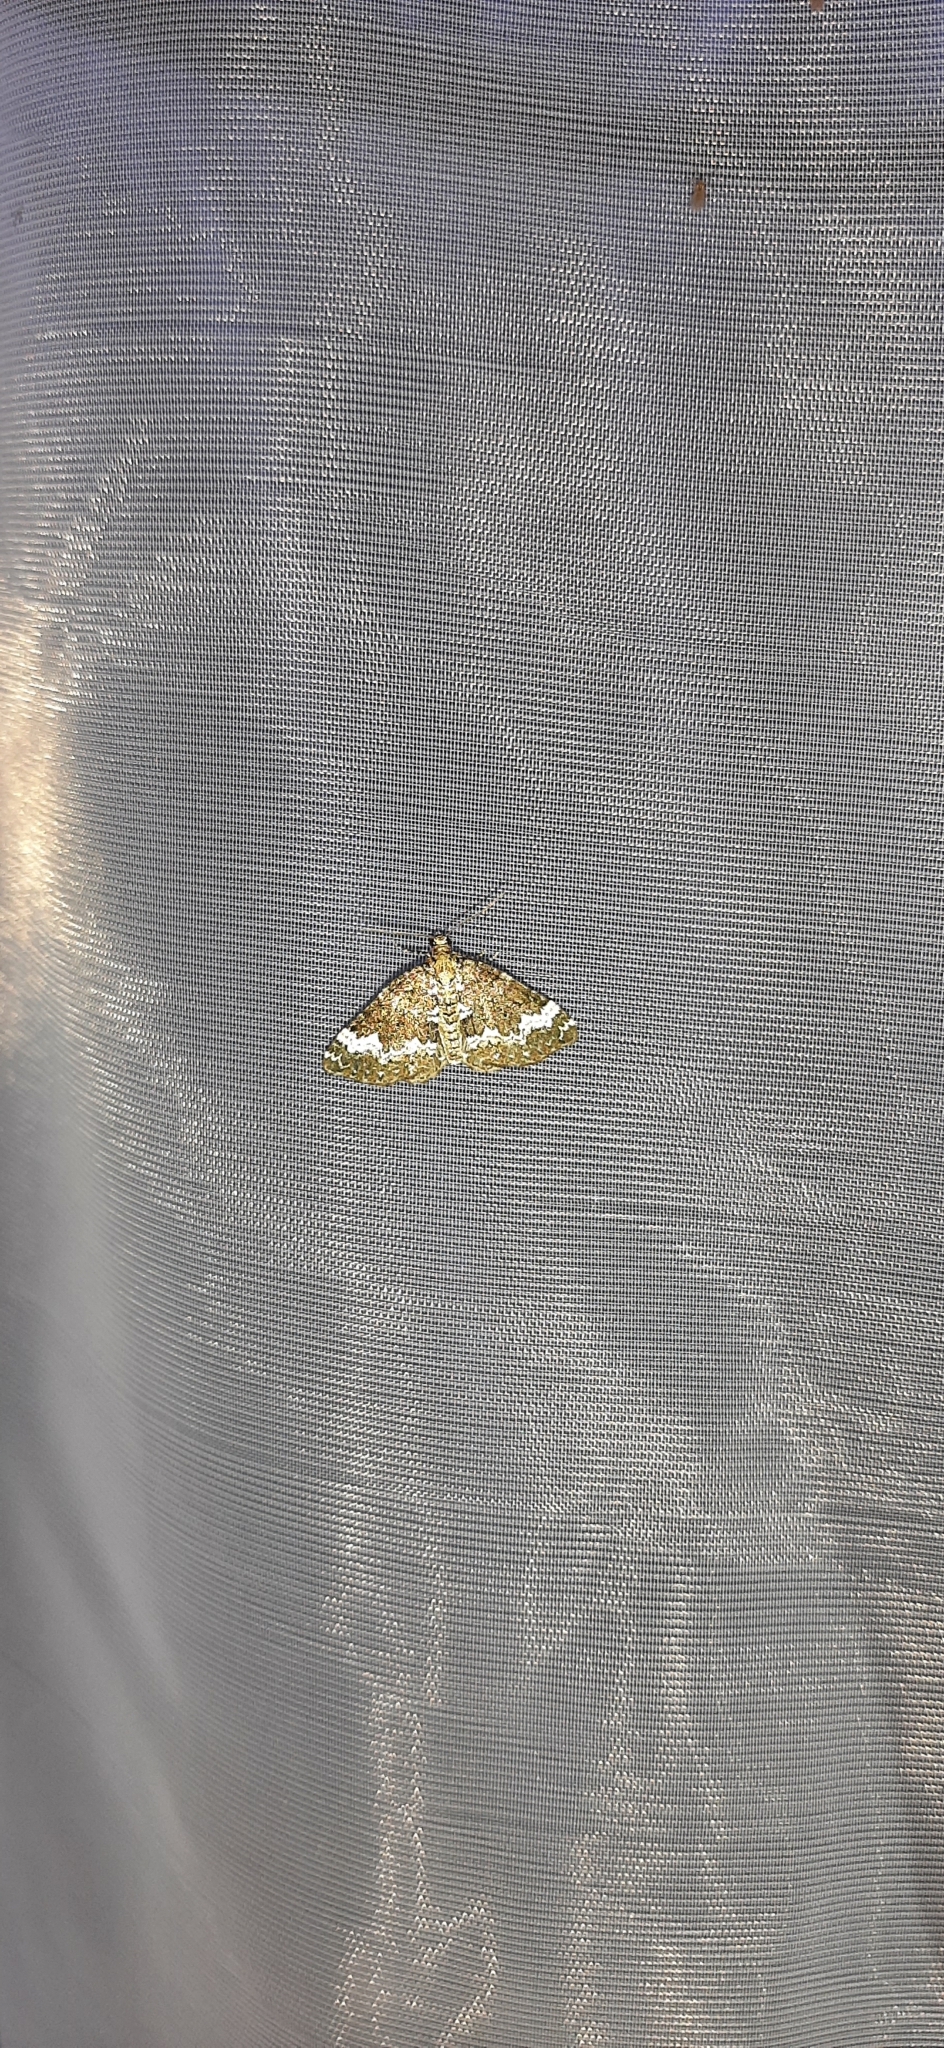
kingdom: Animalia
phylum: Arthropoda
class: Insecta
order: Lepidoptera
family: Geometridae
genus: Perizoma
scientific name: Perizoma alchemillata
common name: Small rivulet
